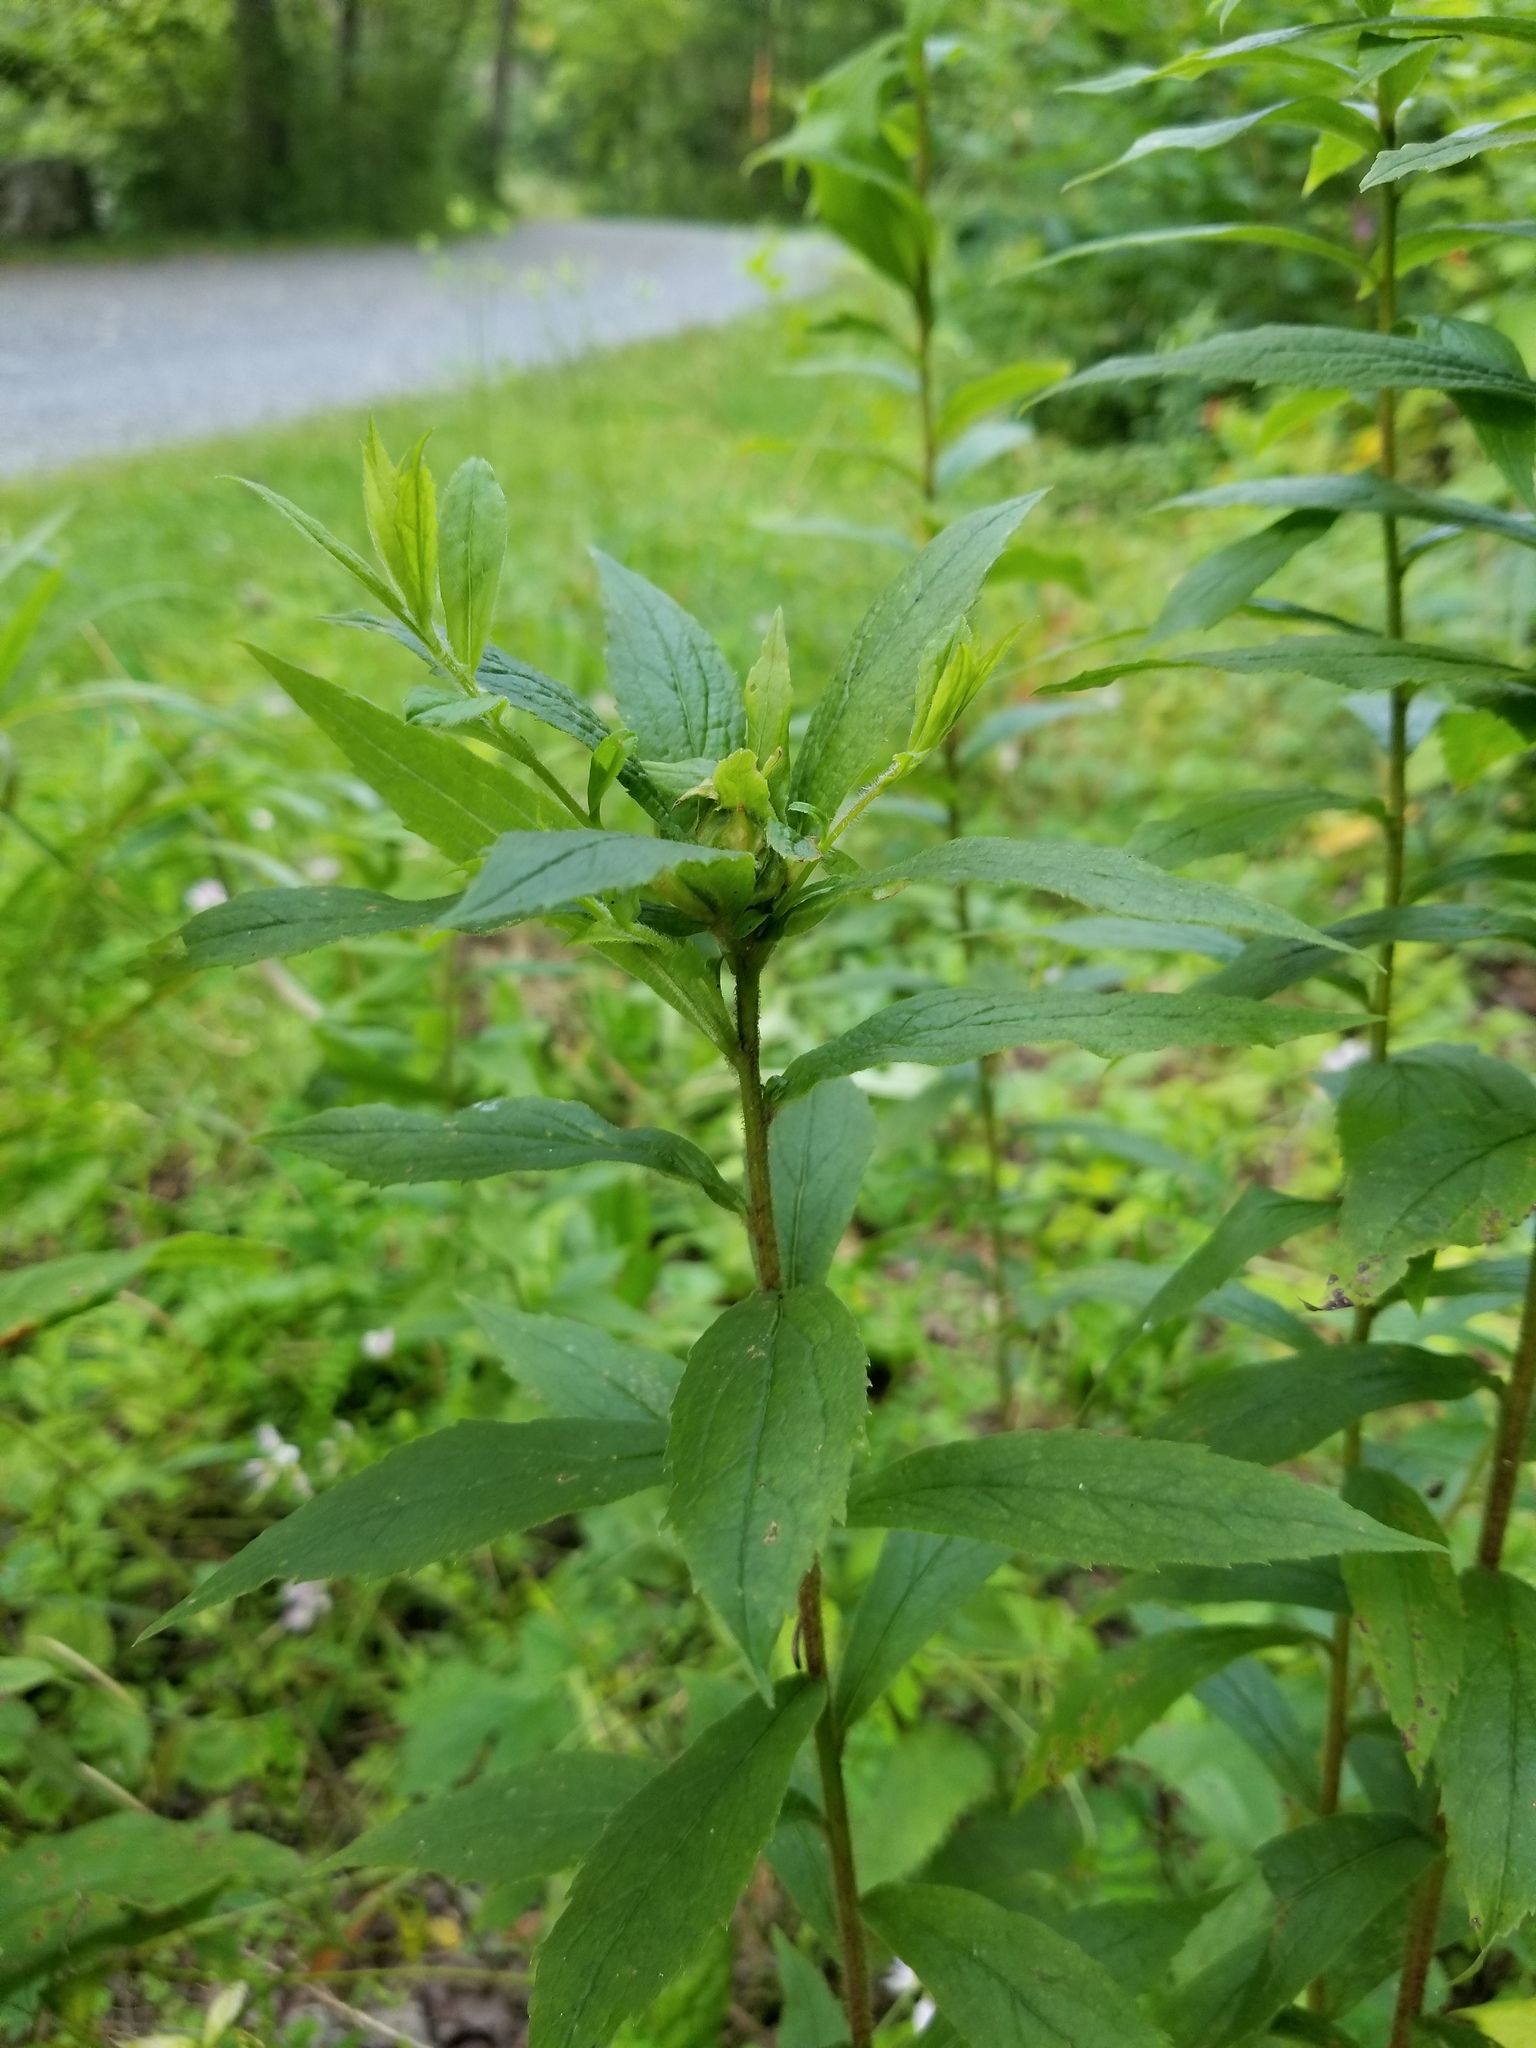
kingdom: Animalia
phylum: Arthropoda
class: Insecta
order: Diptera
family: Cecidomyiidae
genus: Dasineura
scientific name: Dasineura folliculi
